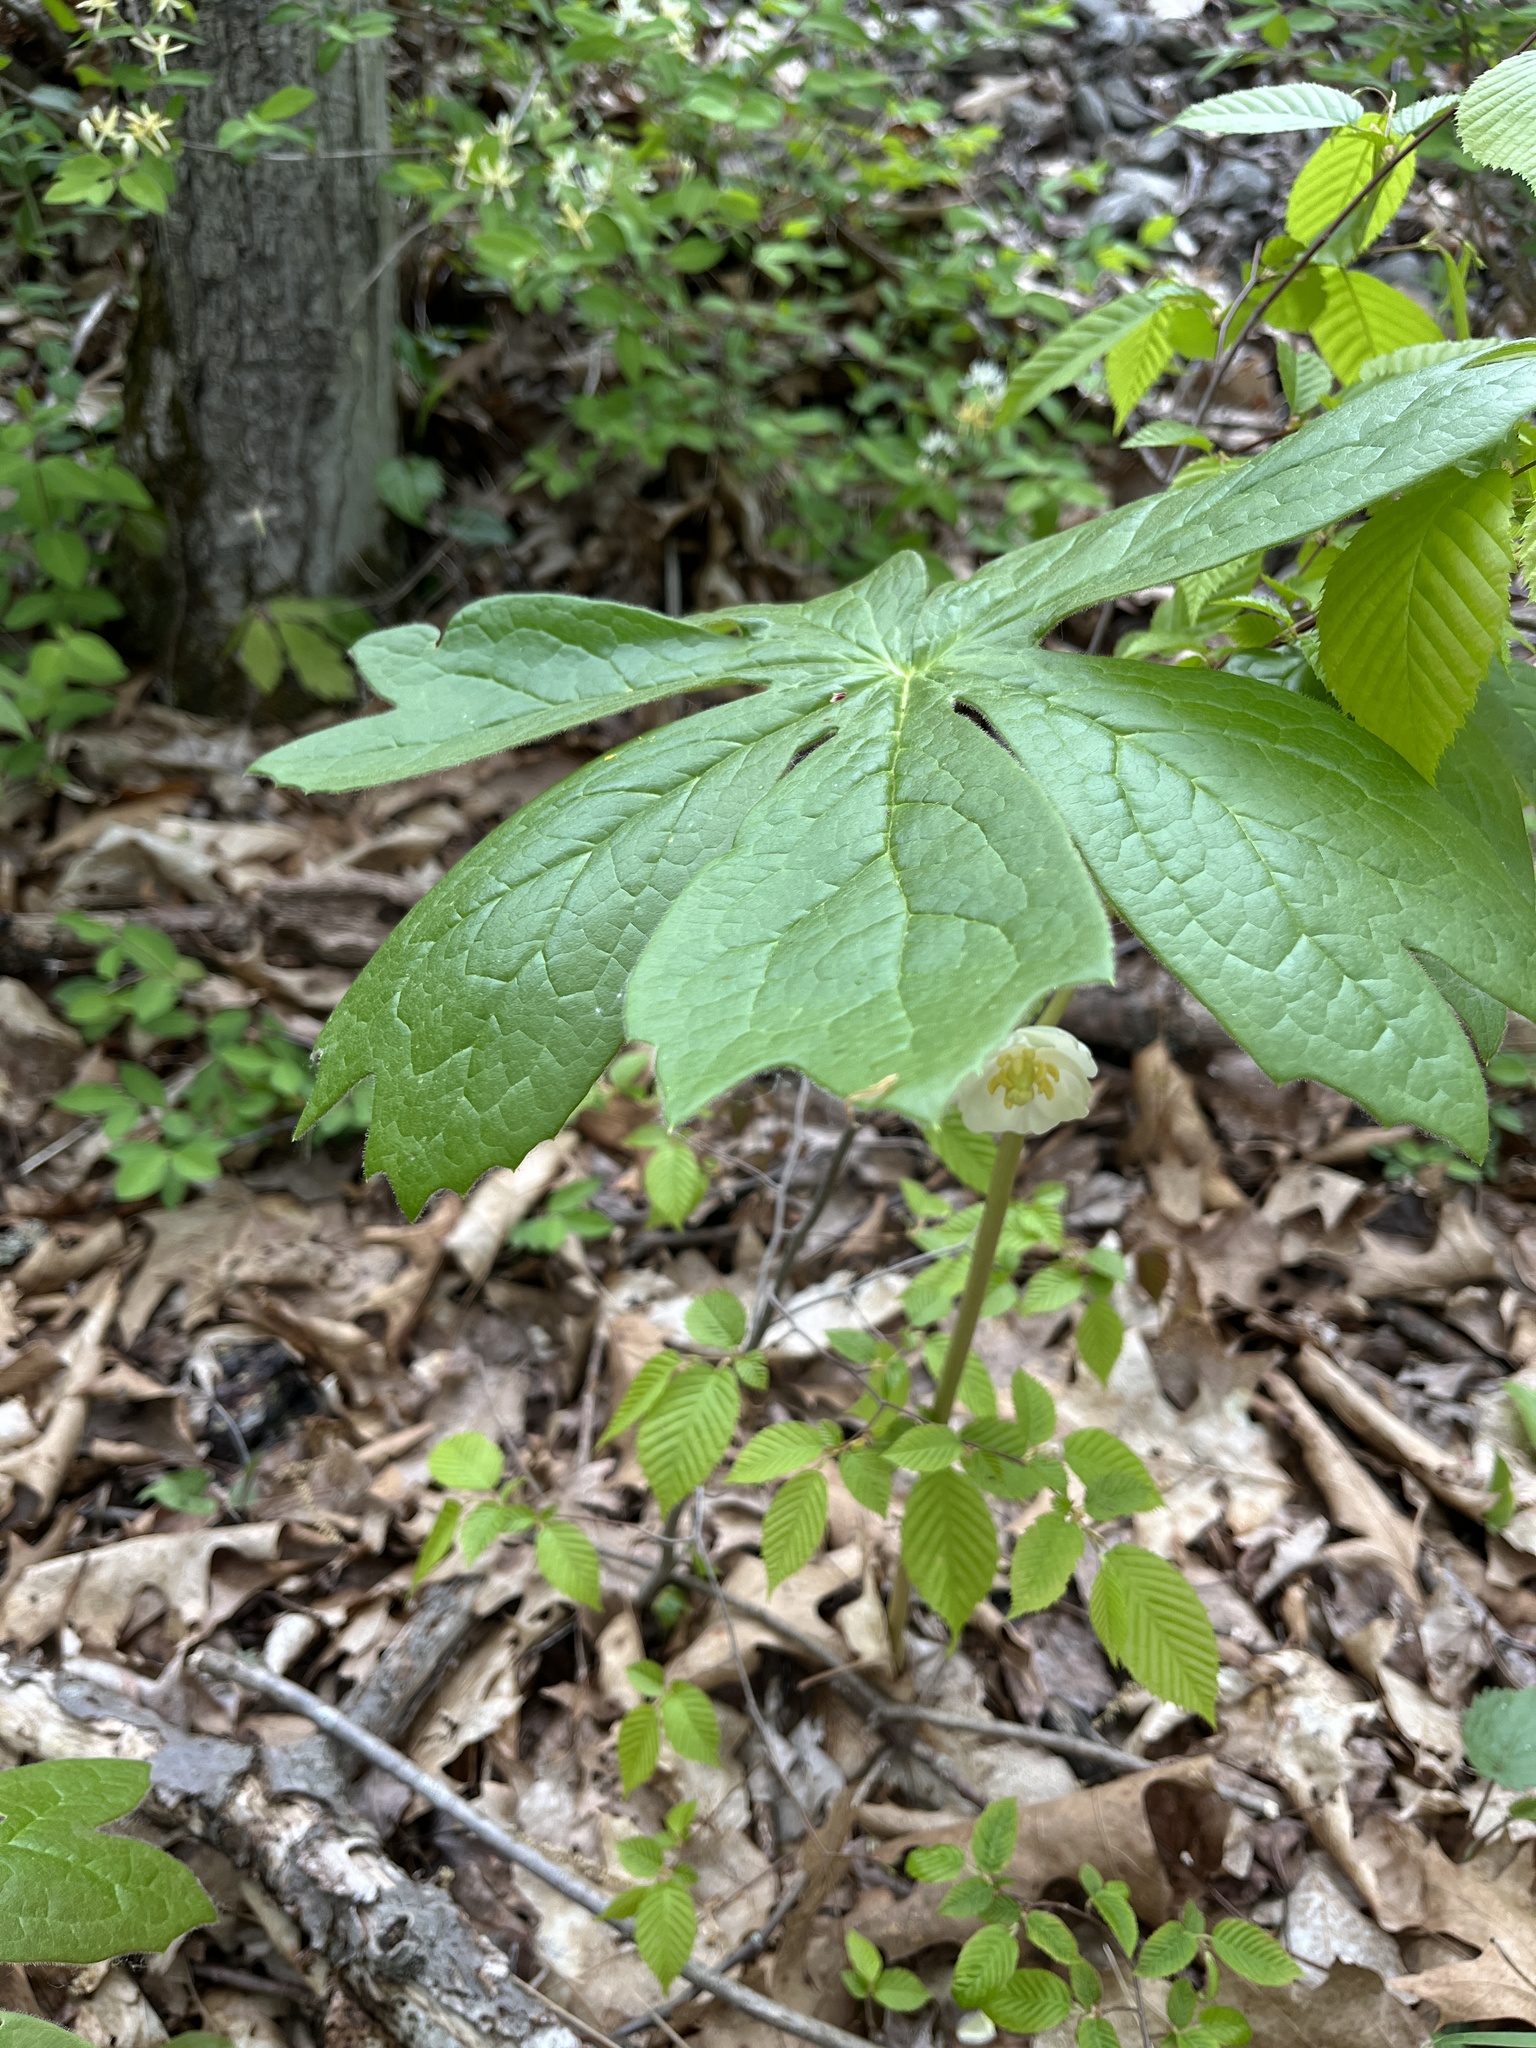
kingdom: Plantae
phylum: Tracheophyta
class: Magnoliopsida
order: Ranunculales
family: Berberidaceae
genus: Podophyllum
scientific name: Podophyllum peltatum
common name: Wild mandrake
